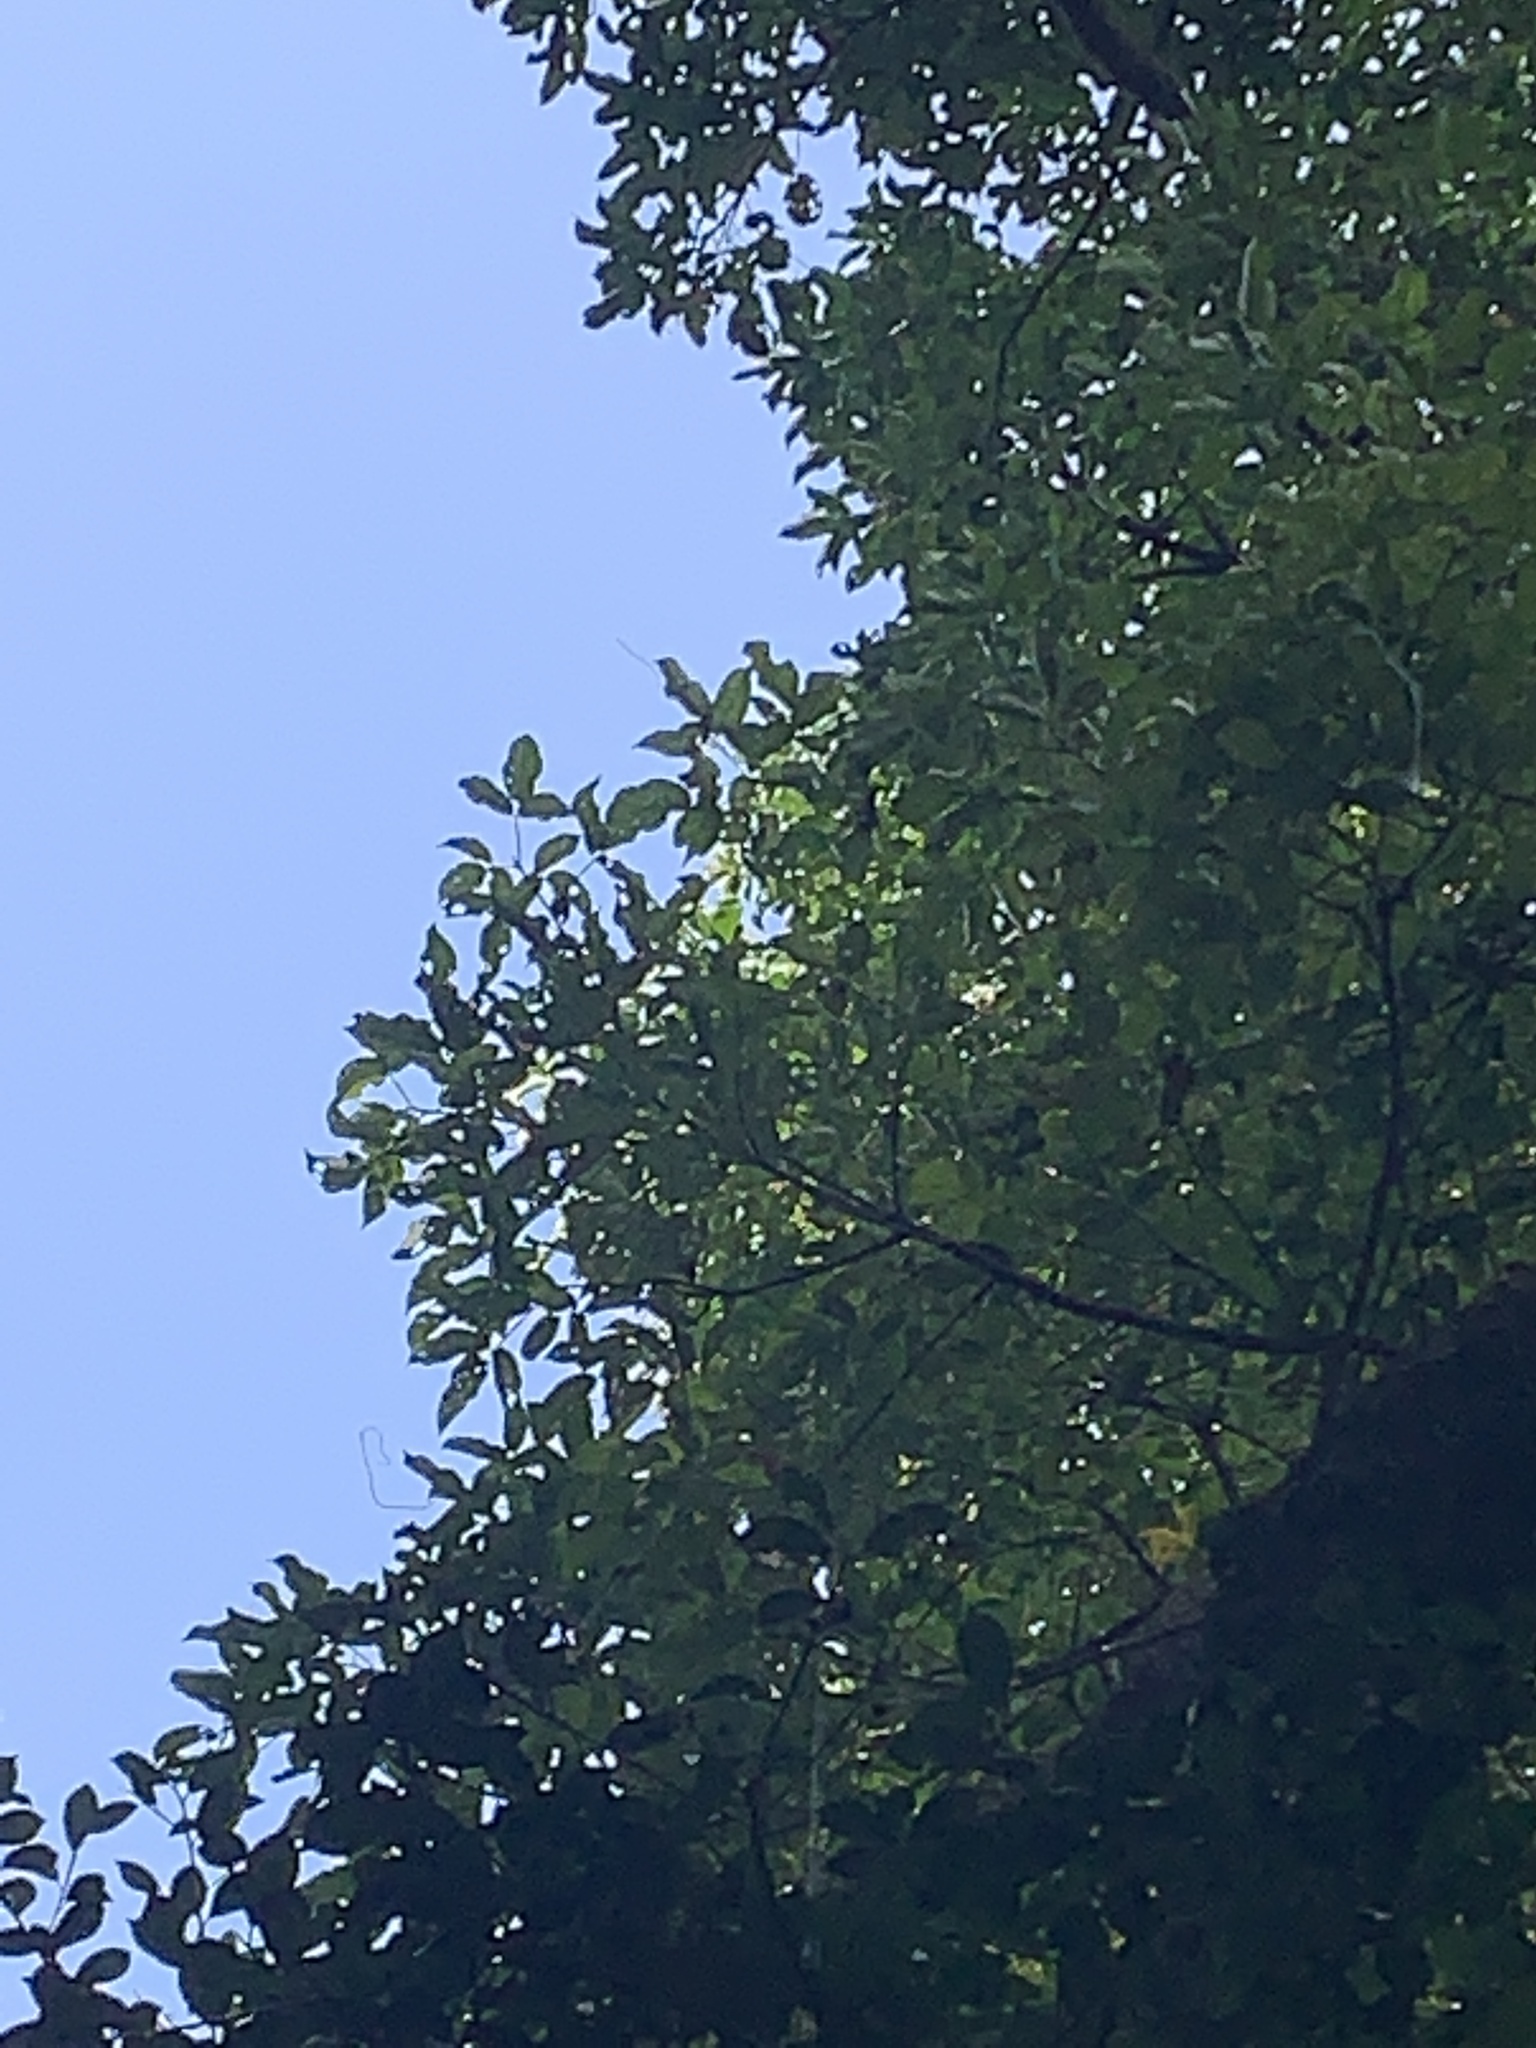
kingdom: Plantae
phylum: Tracheophyta
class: Magnoliopsida
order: Malpighiales
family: Phyllanthaceae
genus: Bischofia
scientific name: Bischofia javanica
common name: Javanese bishopwood
